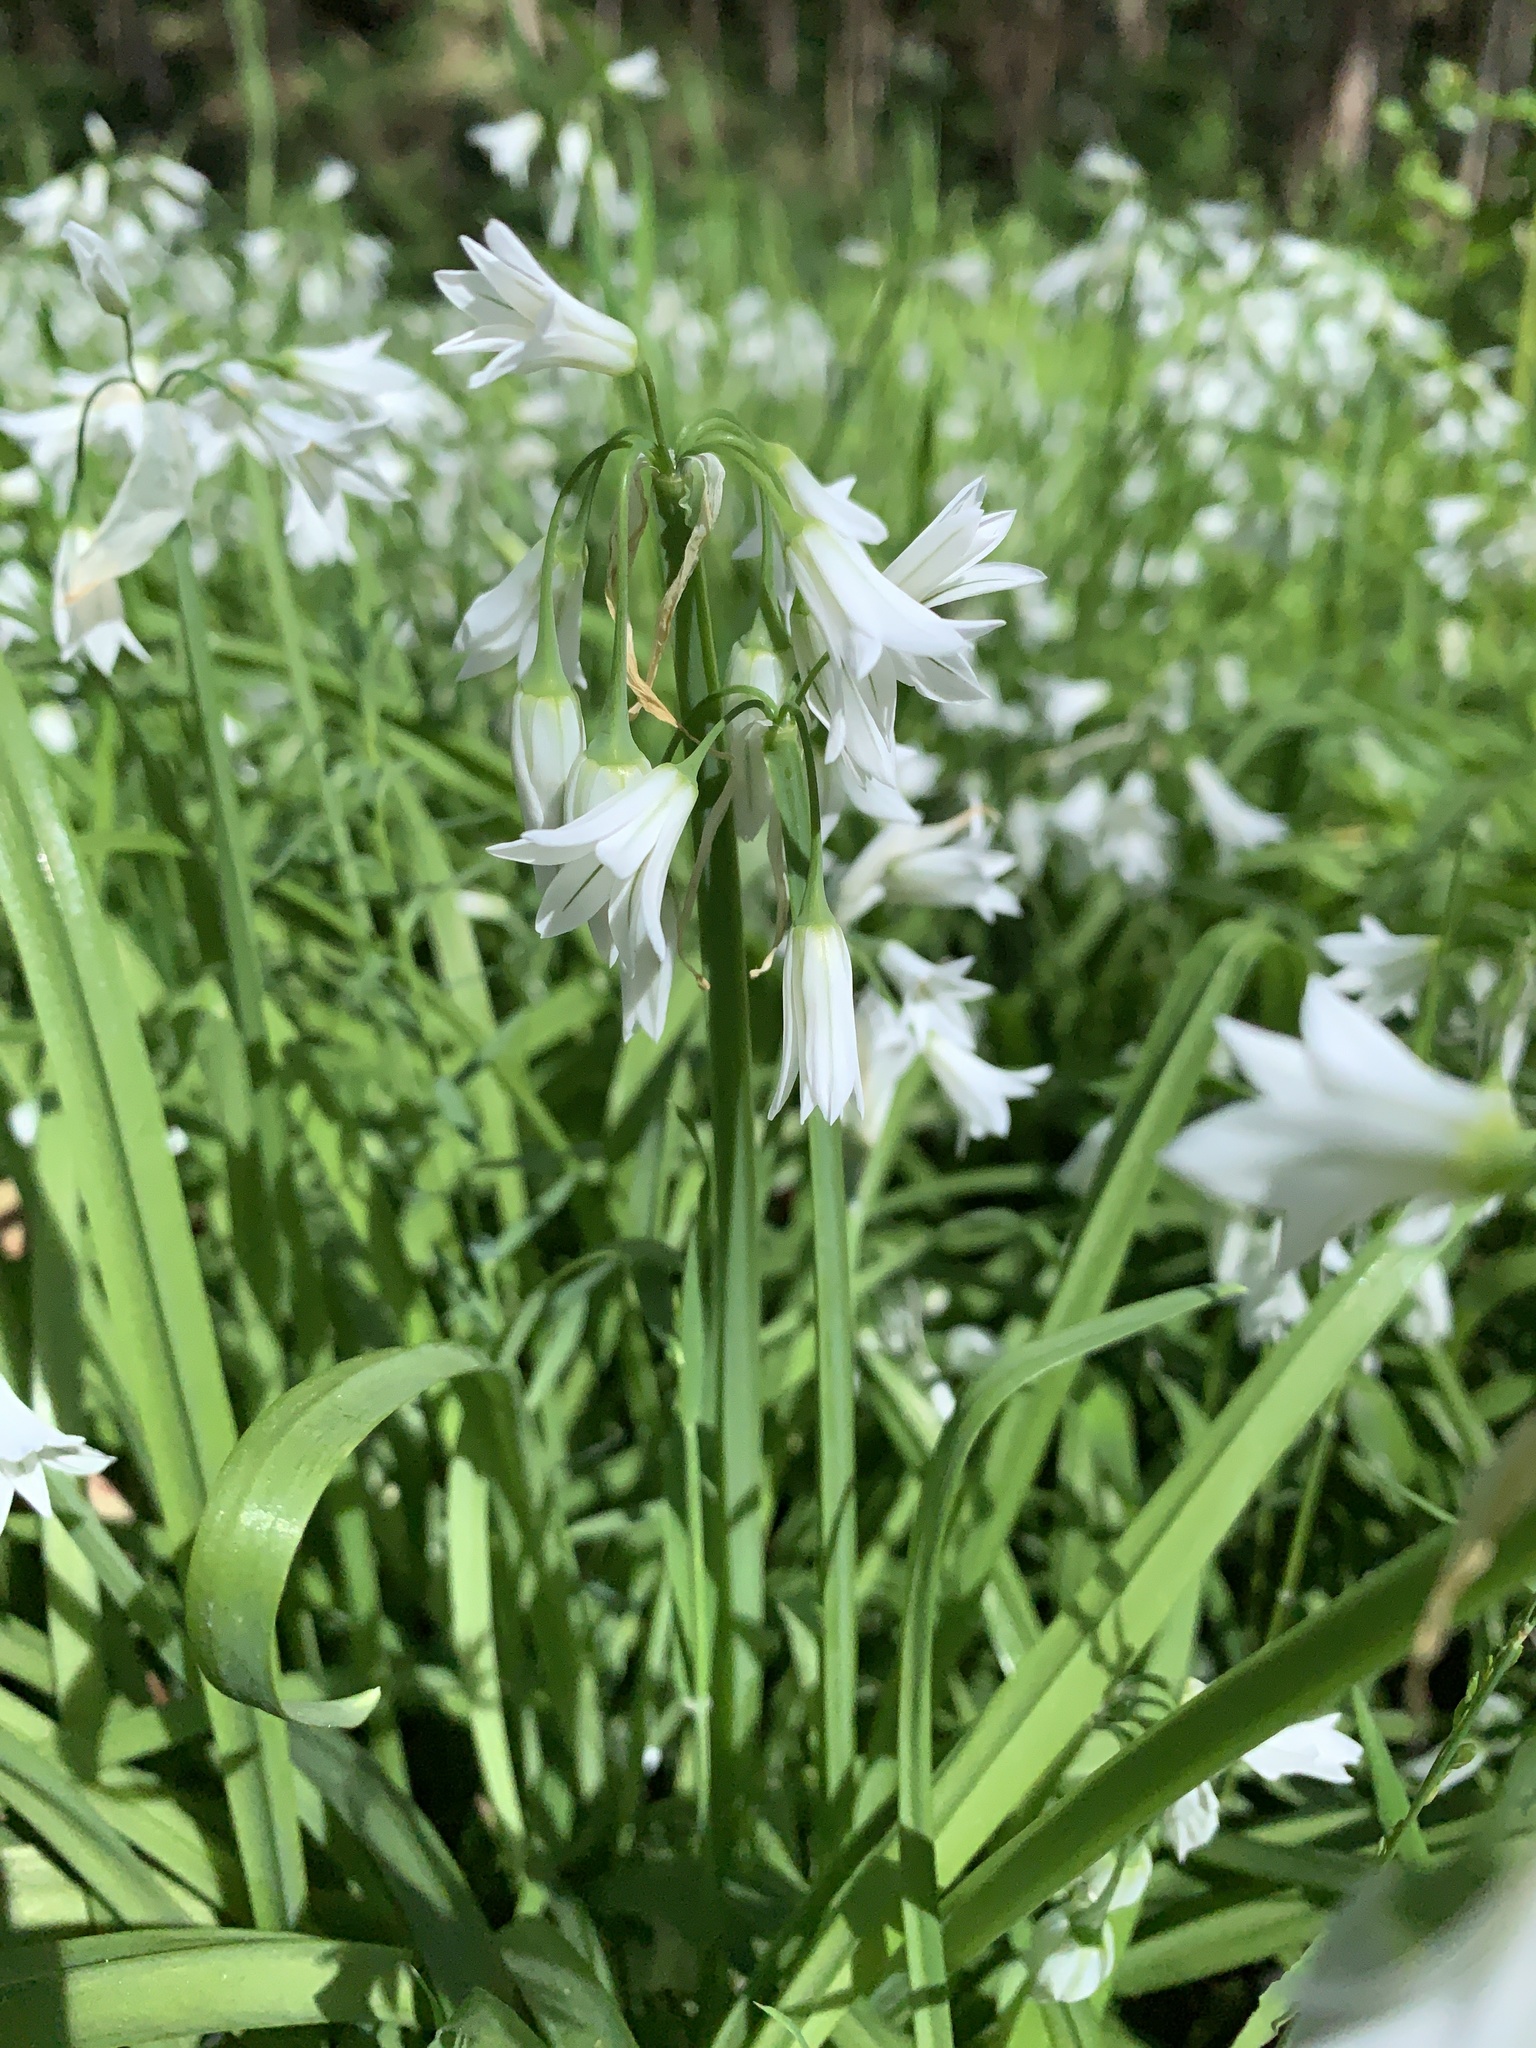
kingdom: Plantae
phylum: Tracheophyta
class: Liliopsida
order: Asparagales
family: Amaryllidaceae
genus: Allium
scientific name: Allium triquetrum
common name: Three-cornered garlic
